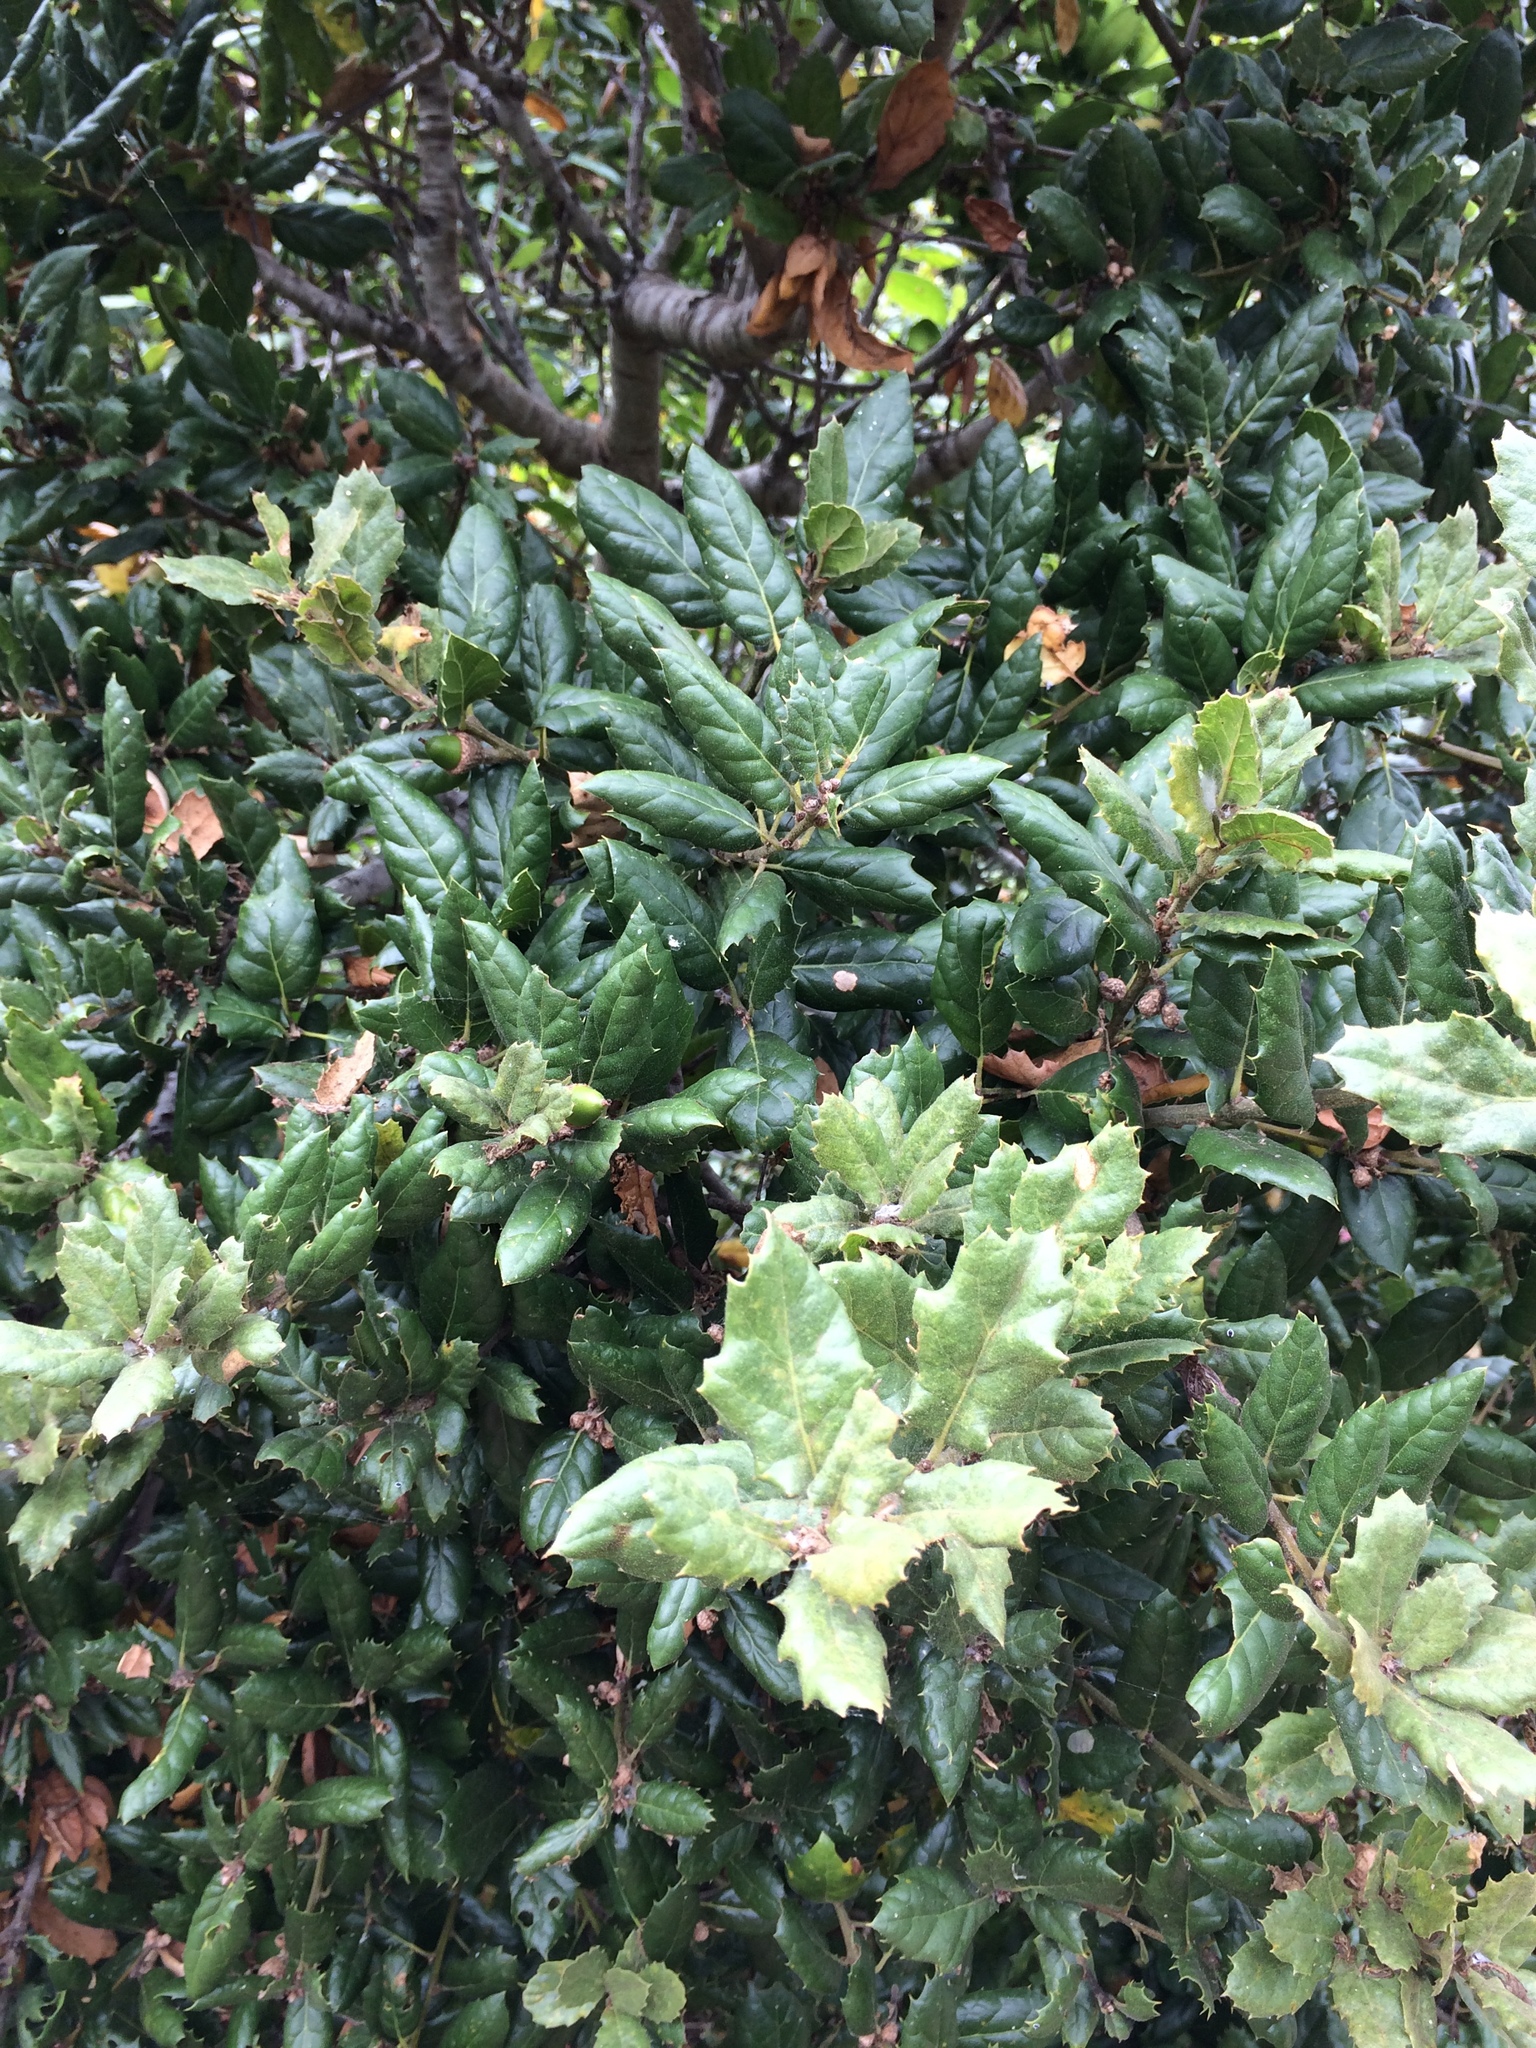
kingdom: Plantae
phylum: Tracheophyta
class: Magnoliopsida
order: Fagales
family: Fagaceae
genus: Quercus
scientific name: Quercus agrifolia
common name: California live oak
